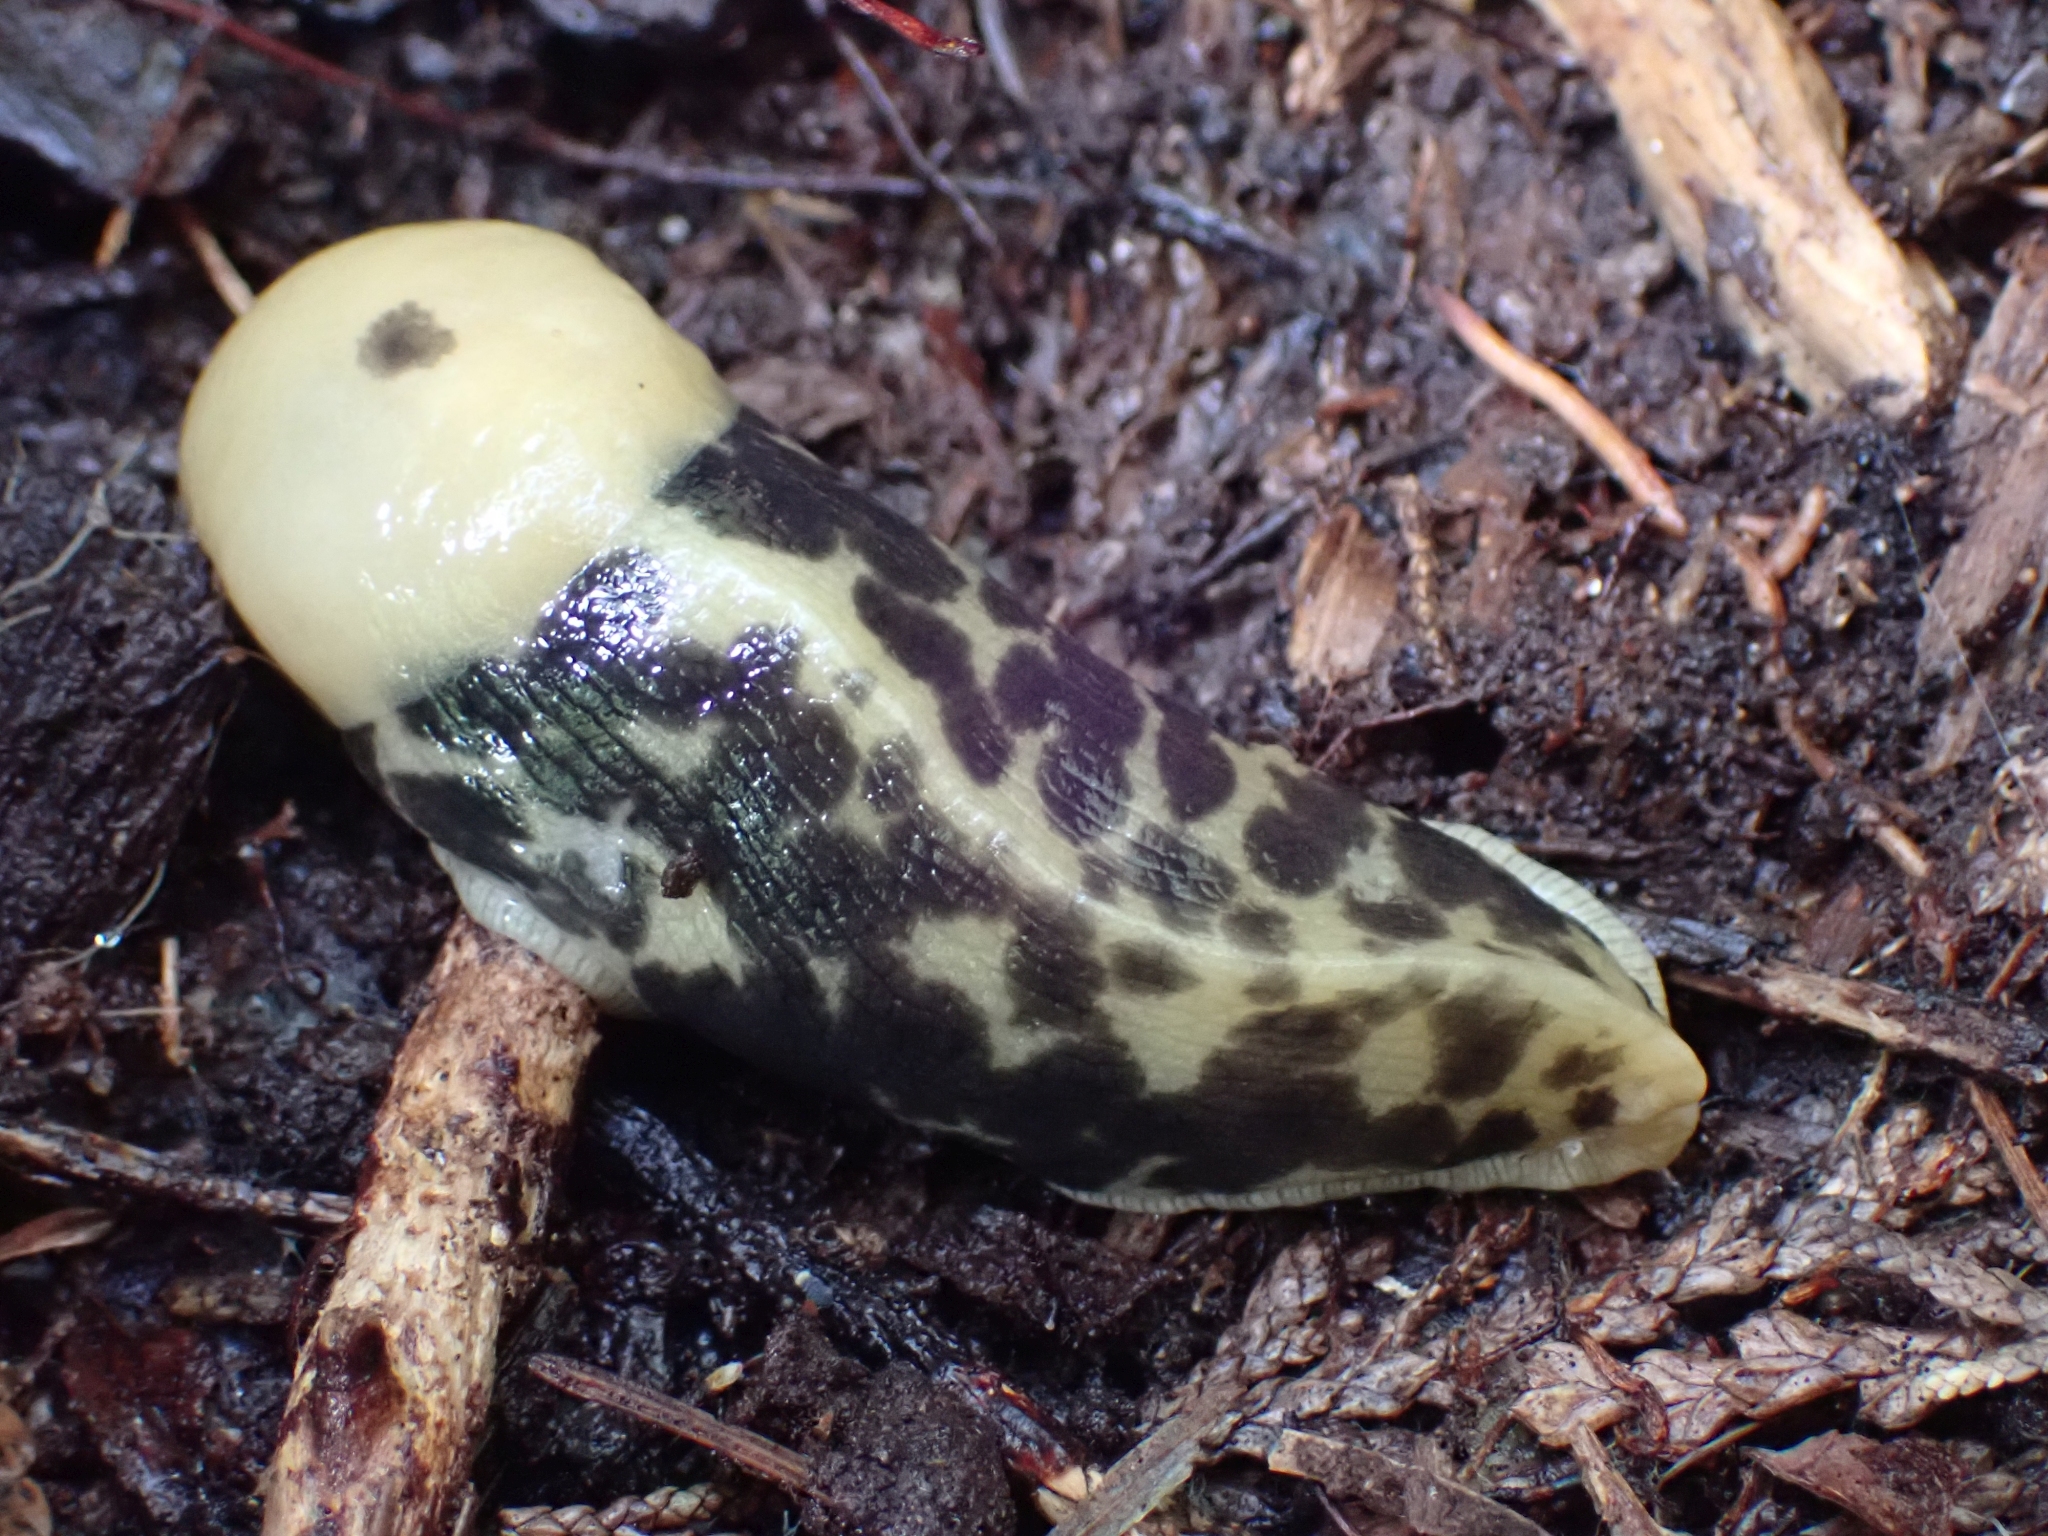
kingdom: Animalia
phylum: Mollusca
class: Gastropoda
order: Stylommatophora
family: Ariolimacidae
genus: Ariolimax
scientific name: Ariolimax columbianus
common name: Pacific banana slug
